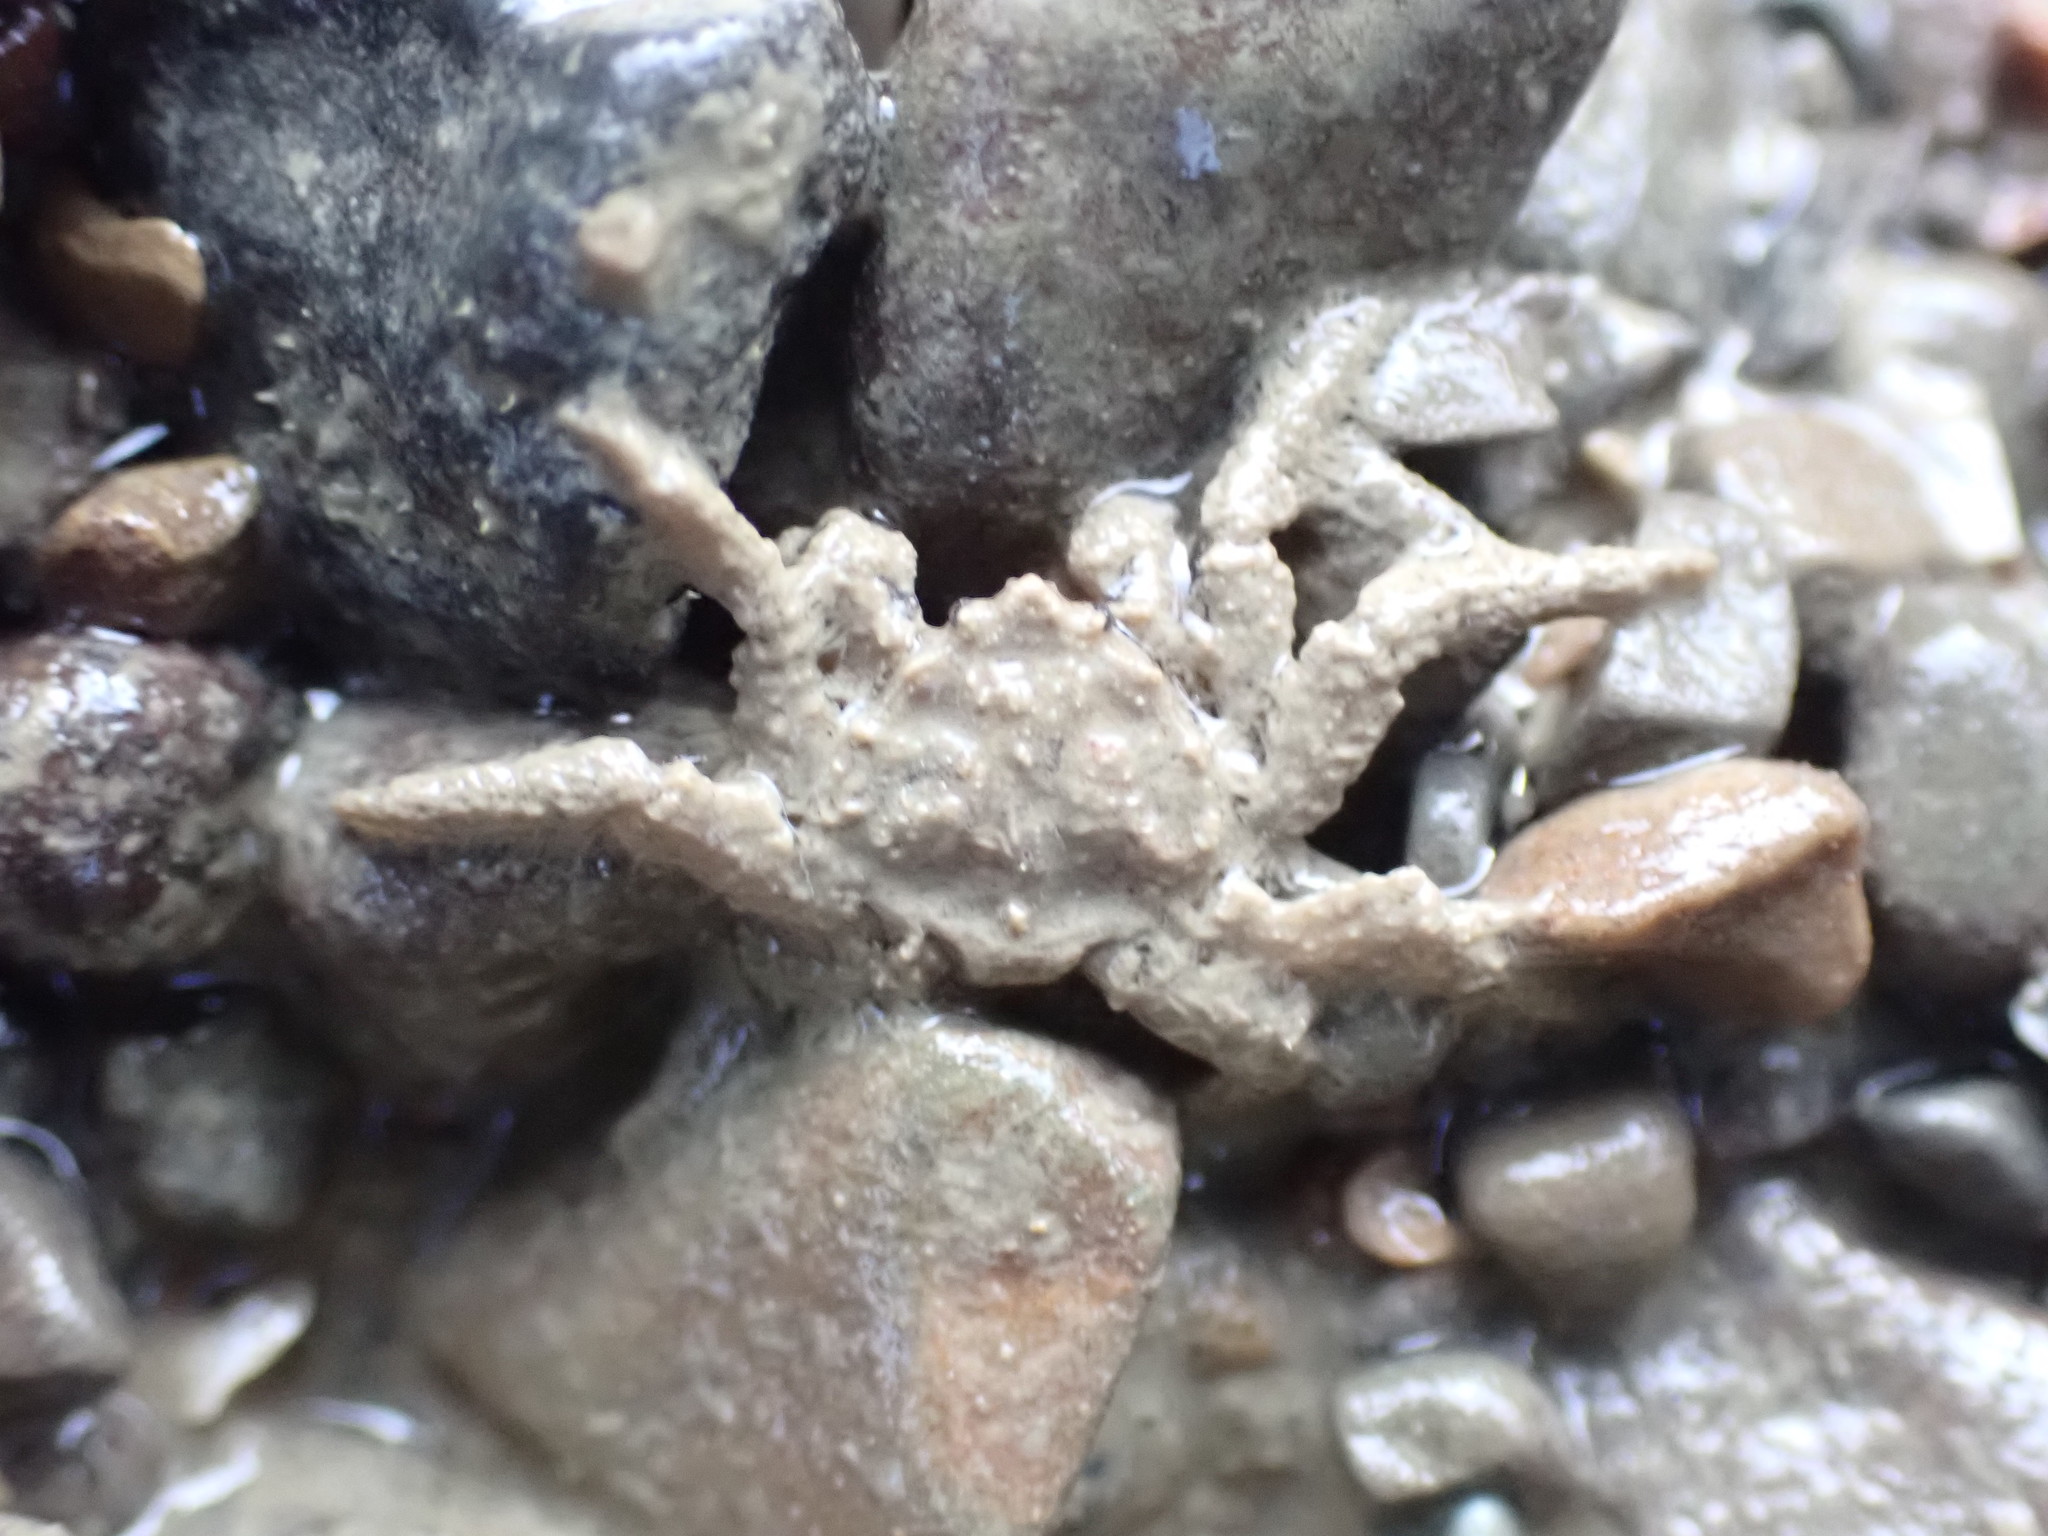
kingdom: Animalia
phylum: Arthropoda
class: Malacostraca
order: Decapoda
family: Hymenosomatidae
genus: Neohymenicus
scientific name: Neohymenicus pubescens
